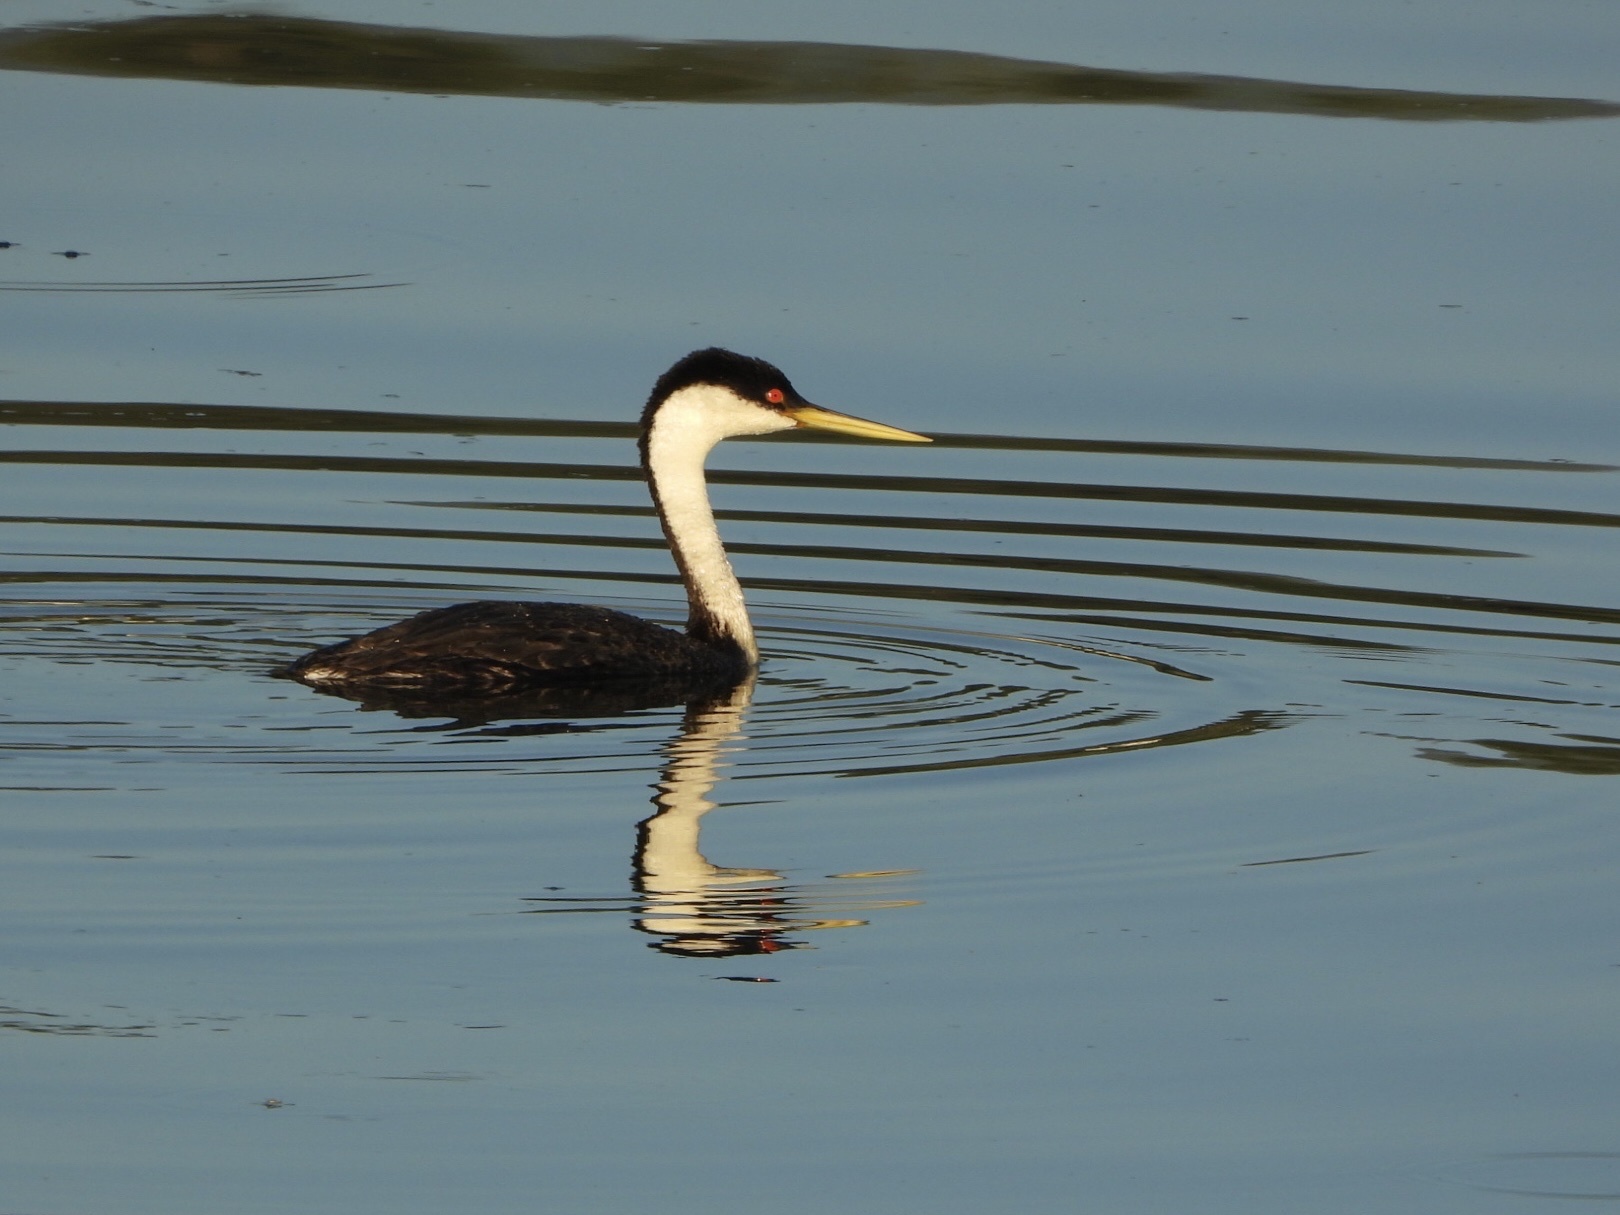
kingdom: Animalia
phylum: Chordata
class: Aves
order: Podicipediformes
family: Podicipedidae
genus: Aechmophorus
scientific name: Aechmophorus occidentalis
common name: Western grebe
